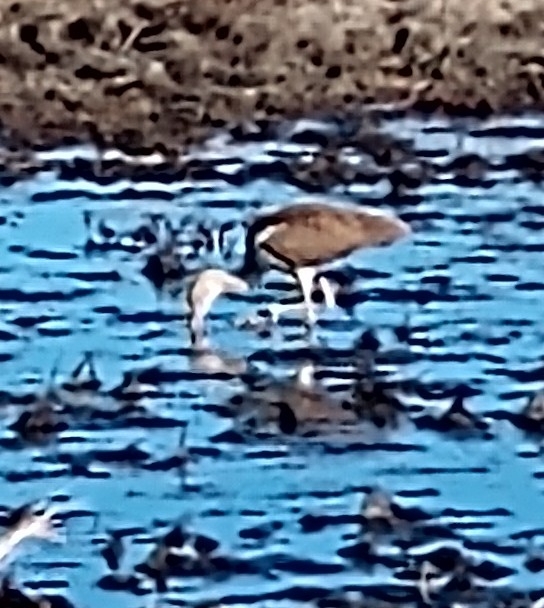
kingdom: Animalia
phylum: Chordata
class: Aves
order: Pelecaniformes
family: Threskiornithidae
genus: Eudocimus
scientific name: Eudocimus albus
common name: White ibis
